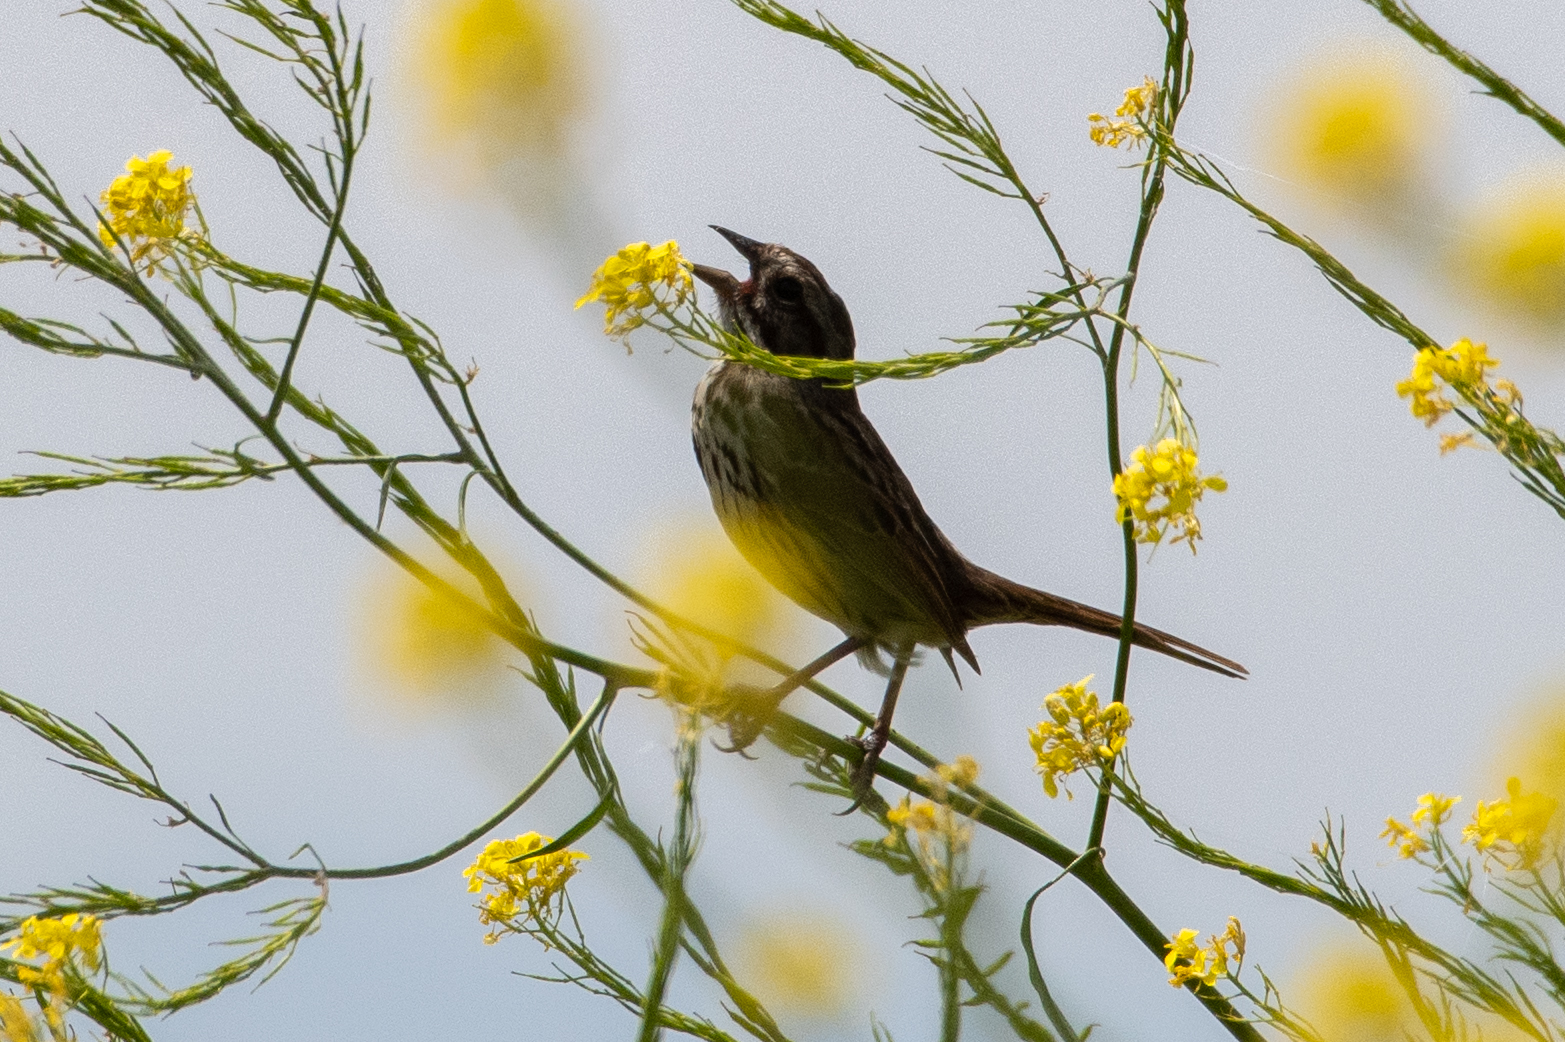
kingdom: Animalia
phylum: Chordata
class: Aves
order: Passeriformes
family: Passerellidae
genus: Melospiza
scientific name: Melospiza melodia
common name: Song sparrow
